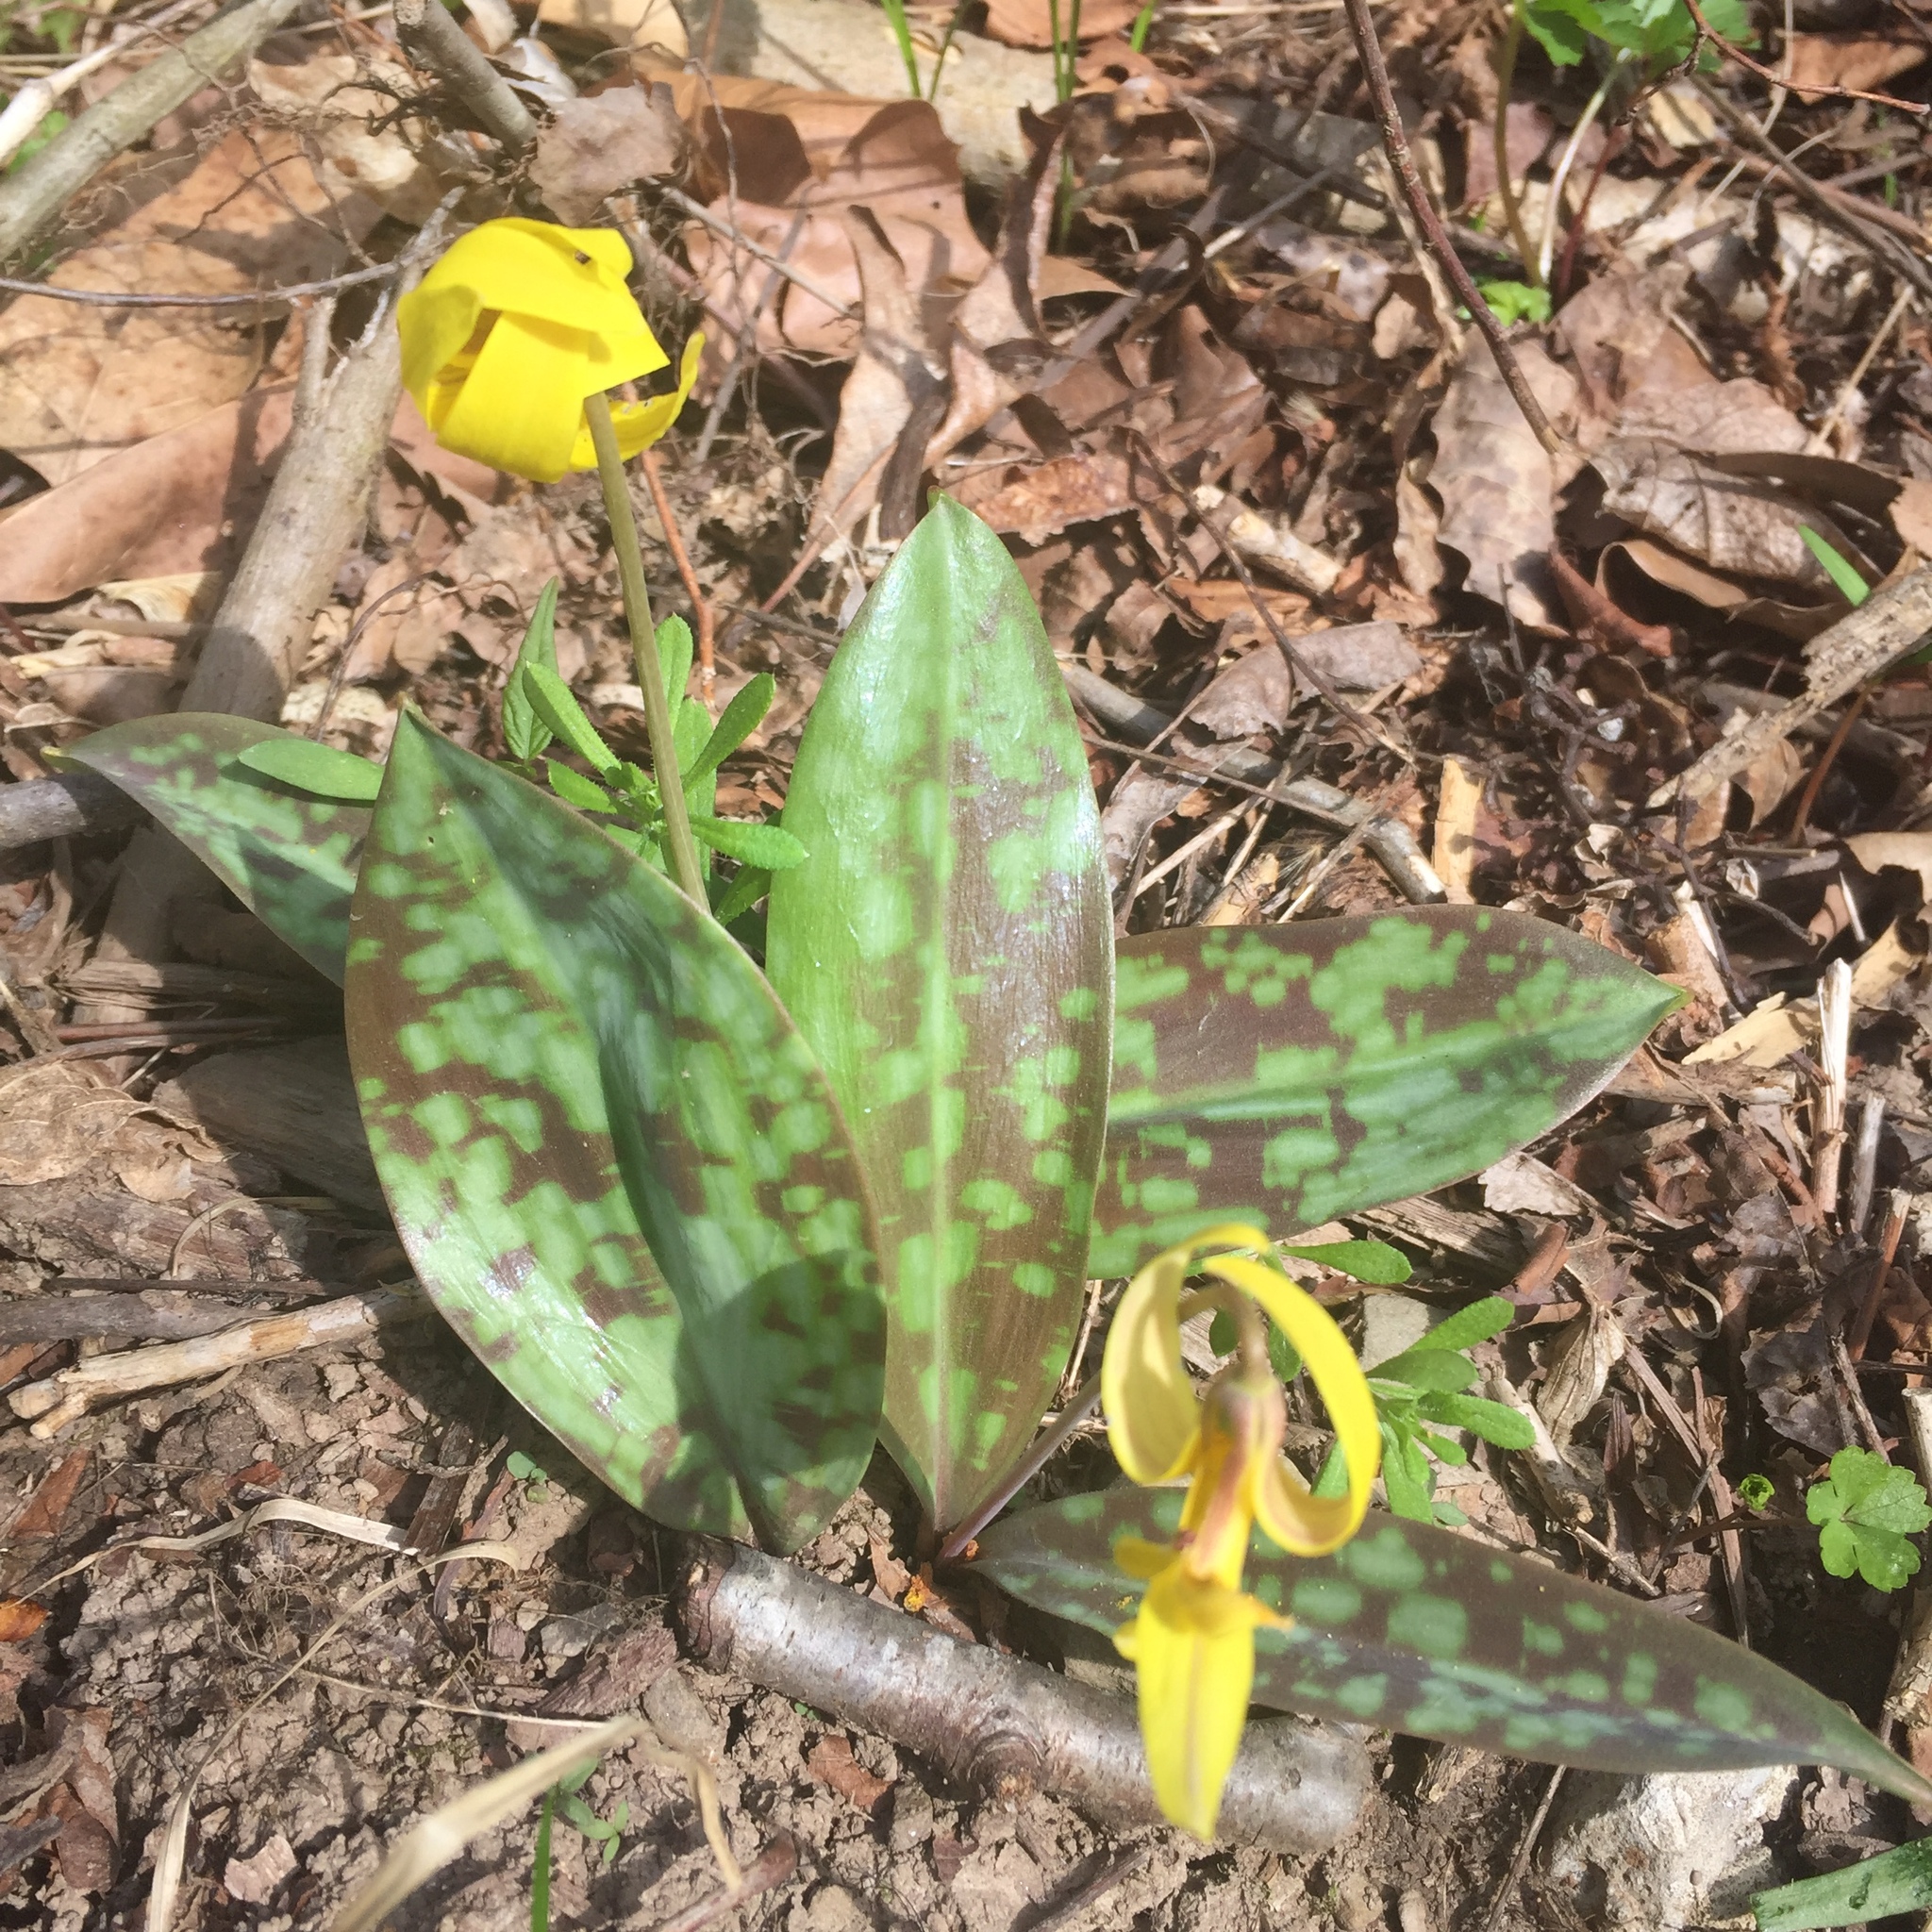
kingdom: Plantae
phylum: Tracheophyta
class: Liliopsida
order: Liliales
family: Liliaceae
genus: Erythronium
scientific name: Erythronium americanum
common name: Yellow adder's-tongue
